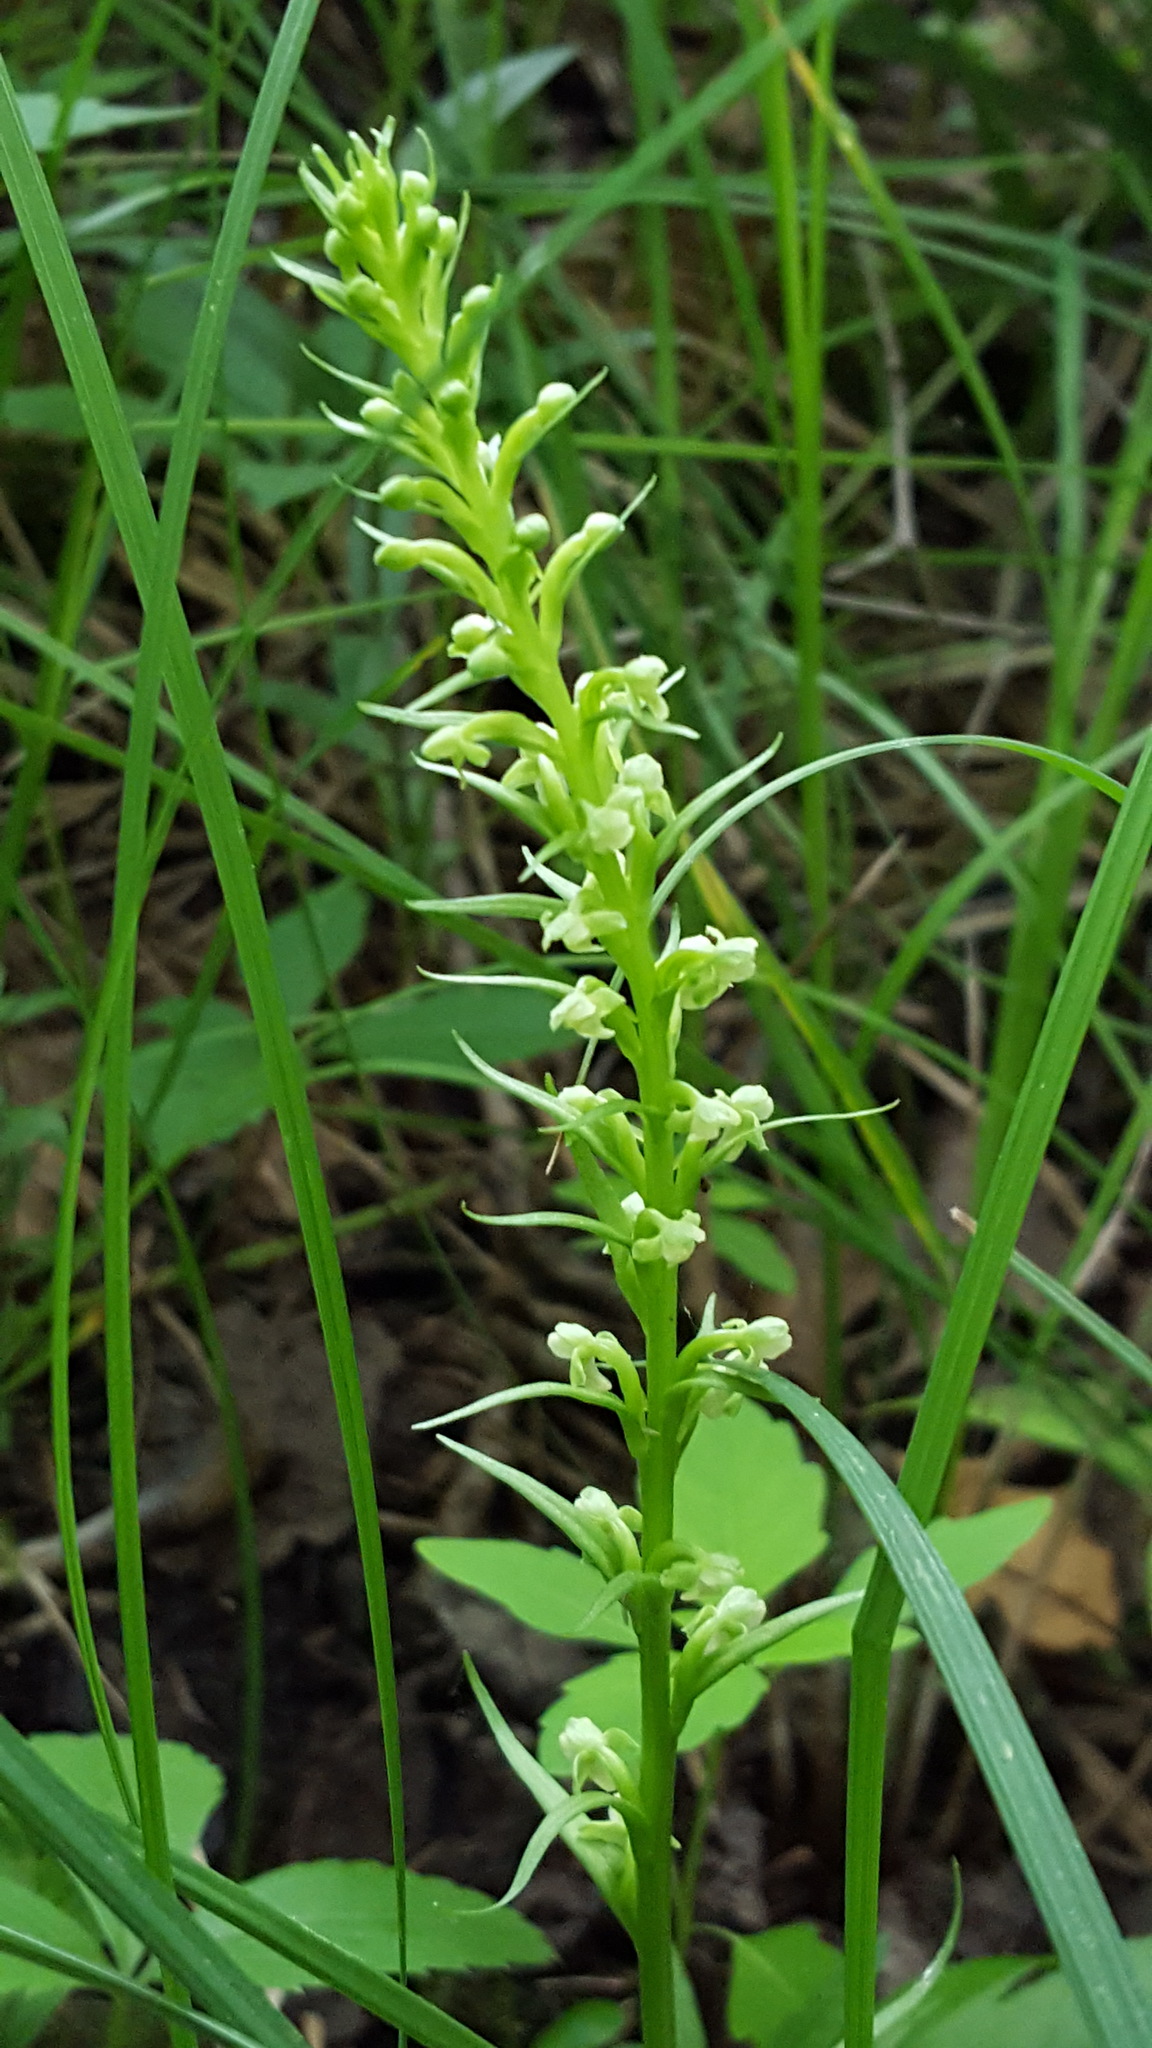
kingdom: Plantae
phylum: Tracheophyta
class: Liliopsida
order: Asparagales
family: Orchidaceae
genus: Platanthera
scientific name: Platanthera flava
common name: Gypsy-spikes
